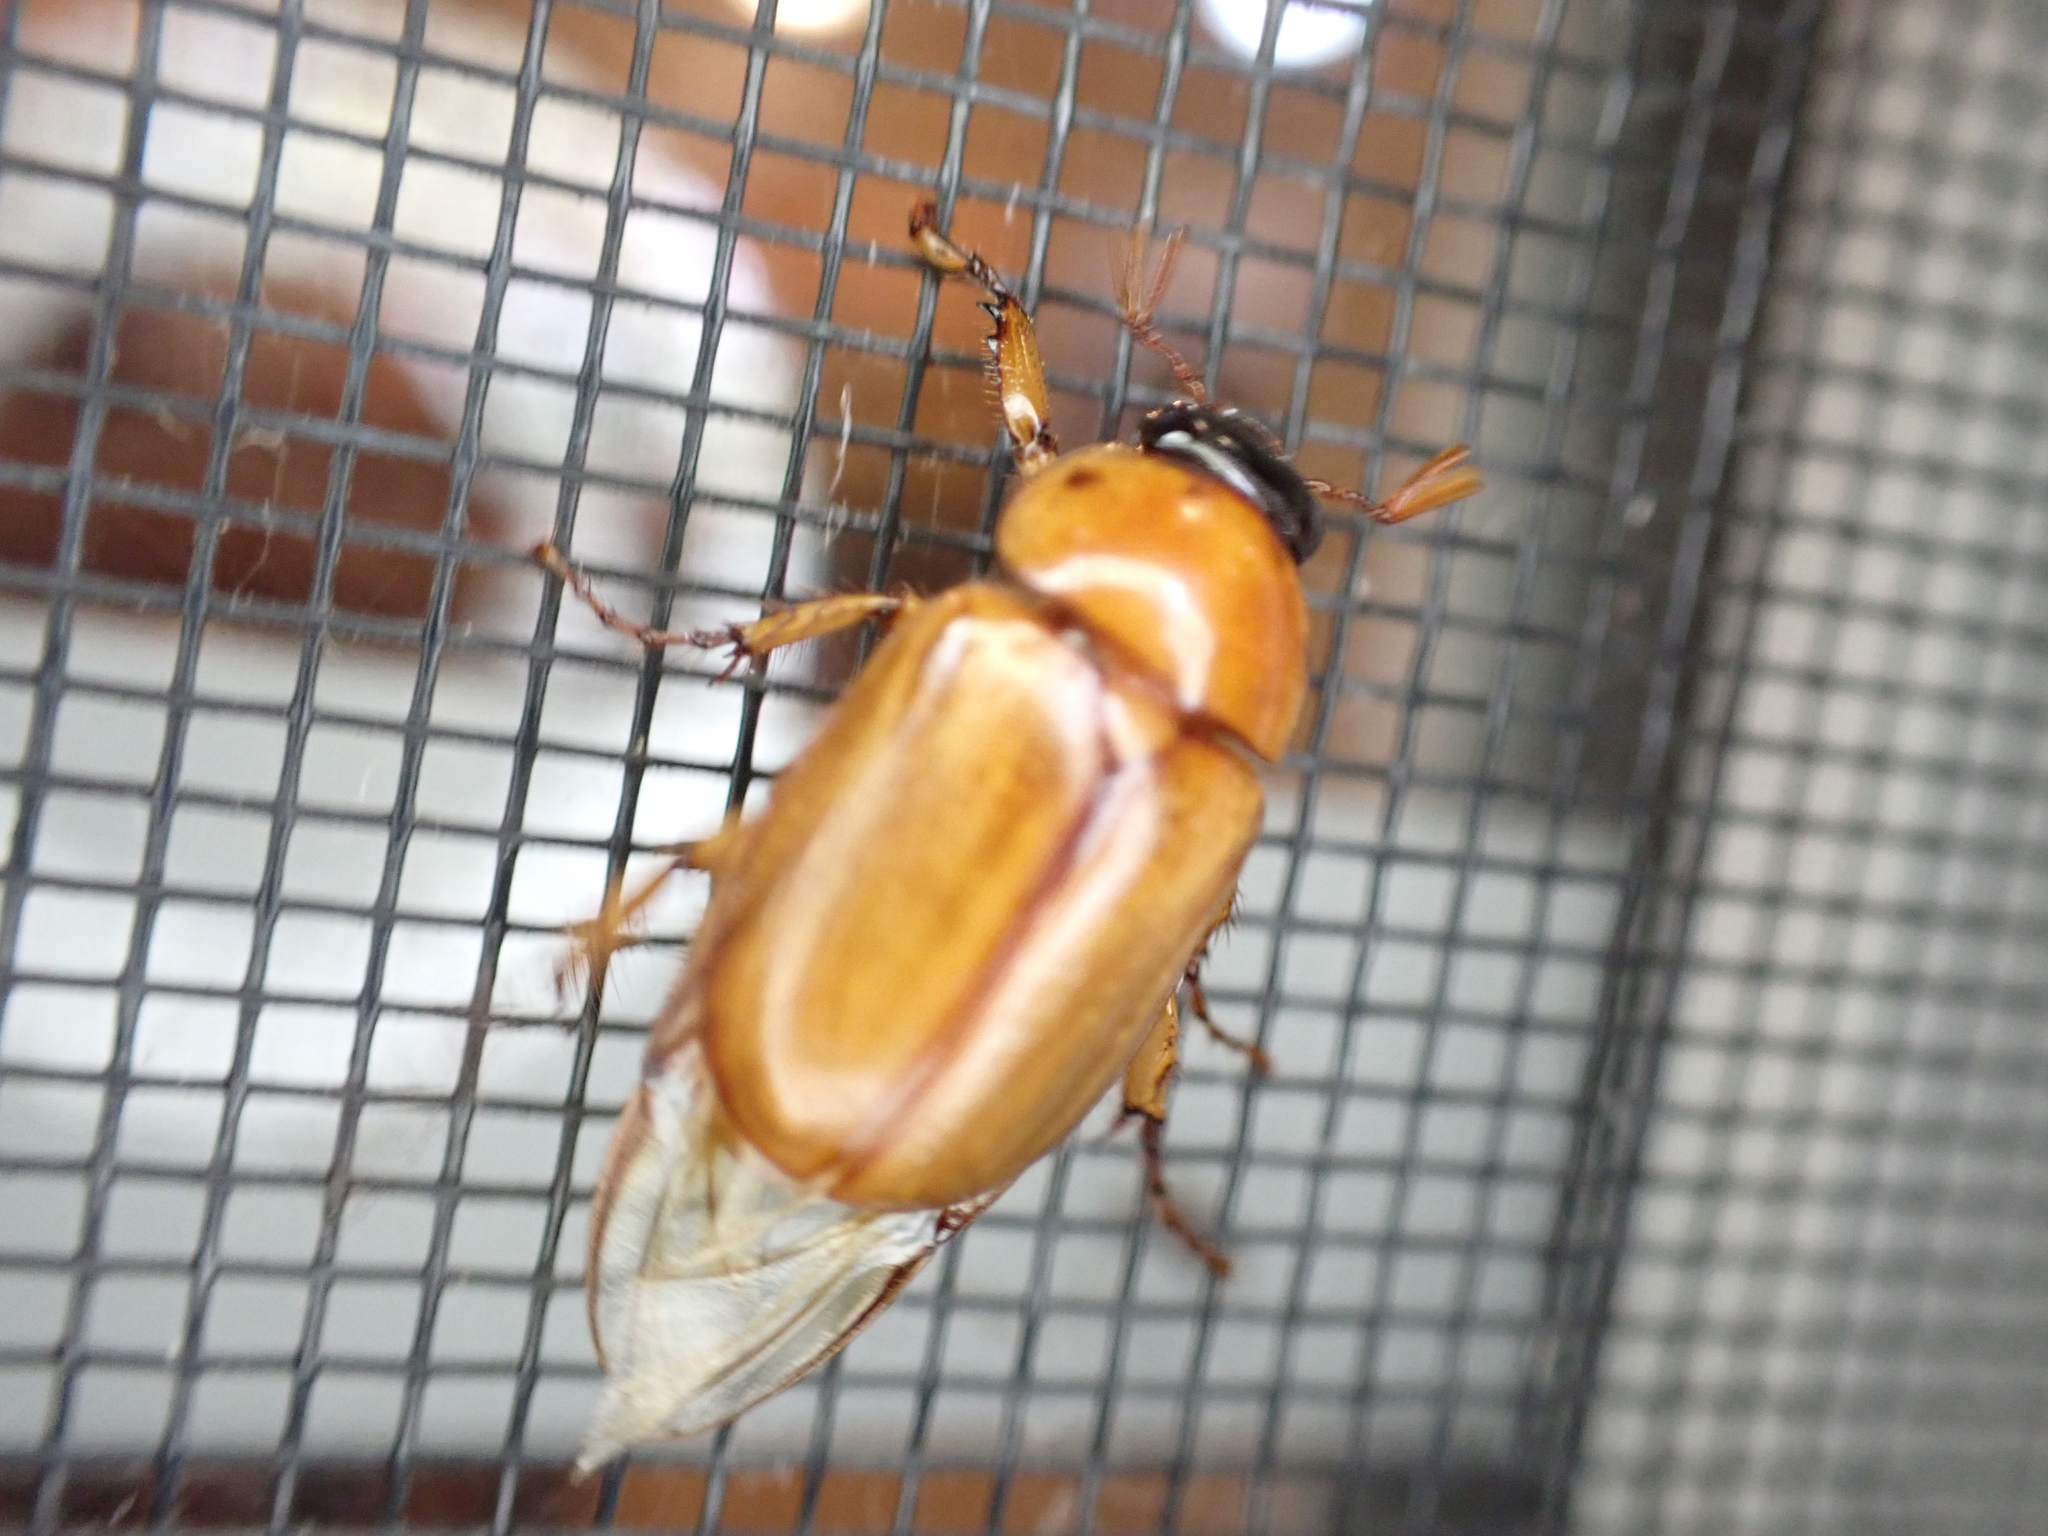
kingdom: Animalia
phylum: Arthropoda
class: Insecta
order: Coleoptera
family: Scarabaeidae
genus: Cyclocephala
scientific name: Cyclocephala lurida
